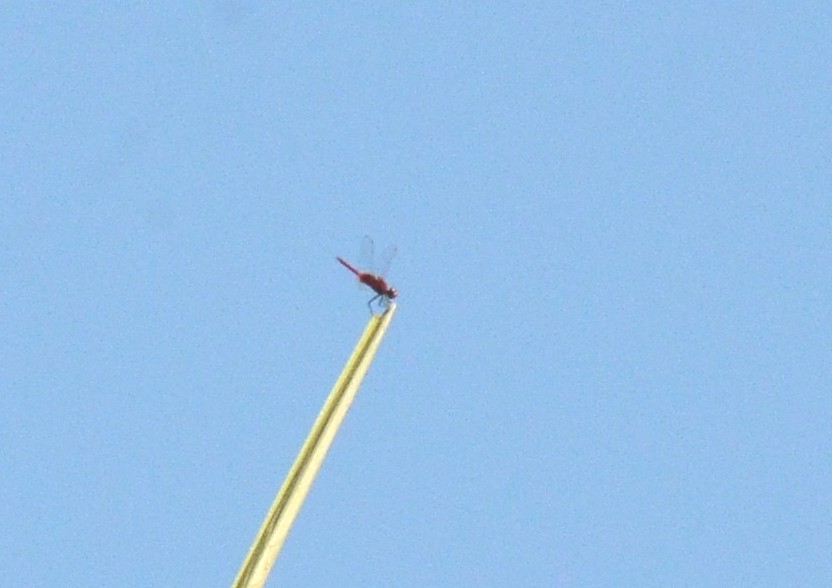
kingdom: Animalia
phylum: Arthropoda
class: Insecta
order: Odonata
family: Libellulidae
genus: Urothemis
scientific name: Urothemis signata
